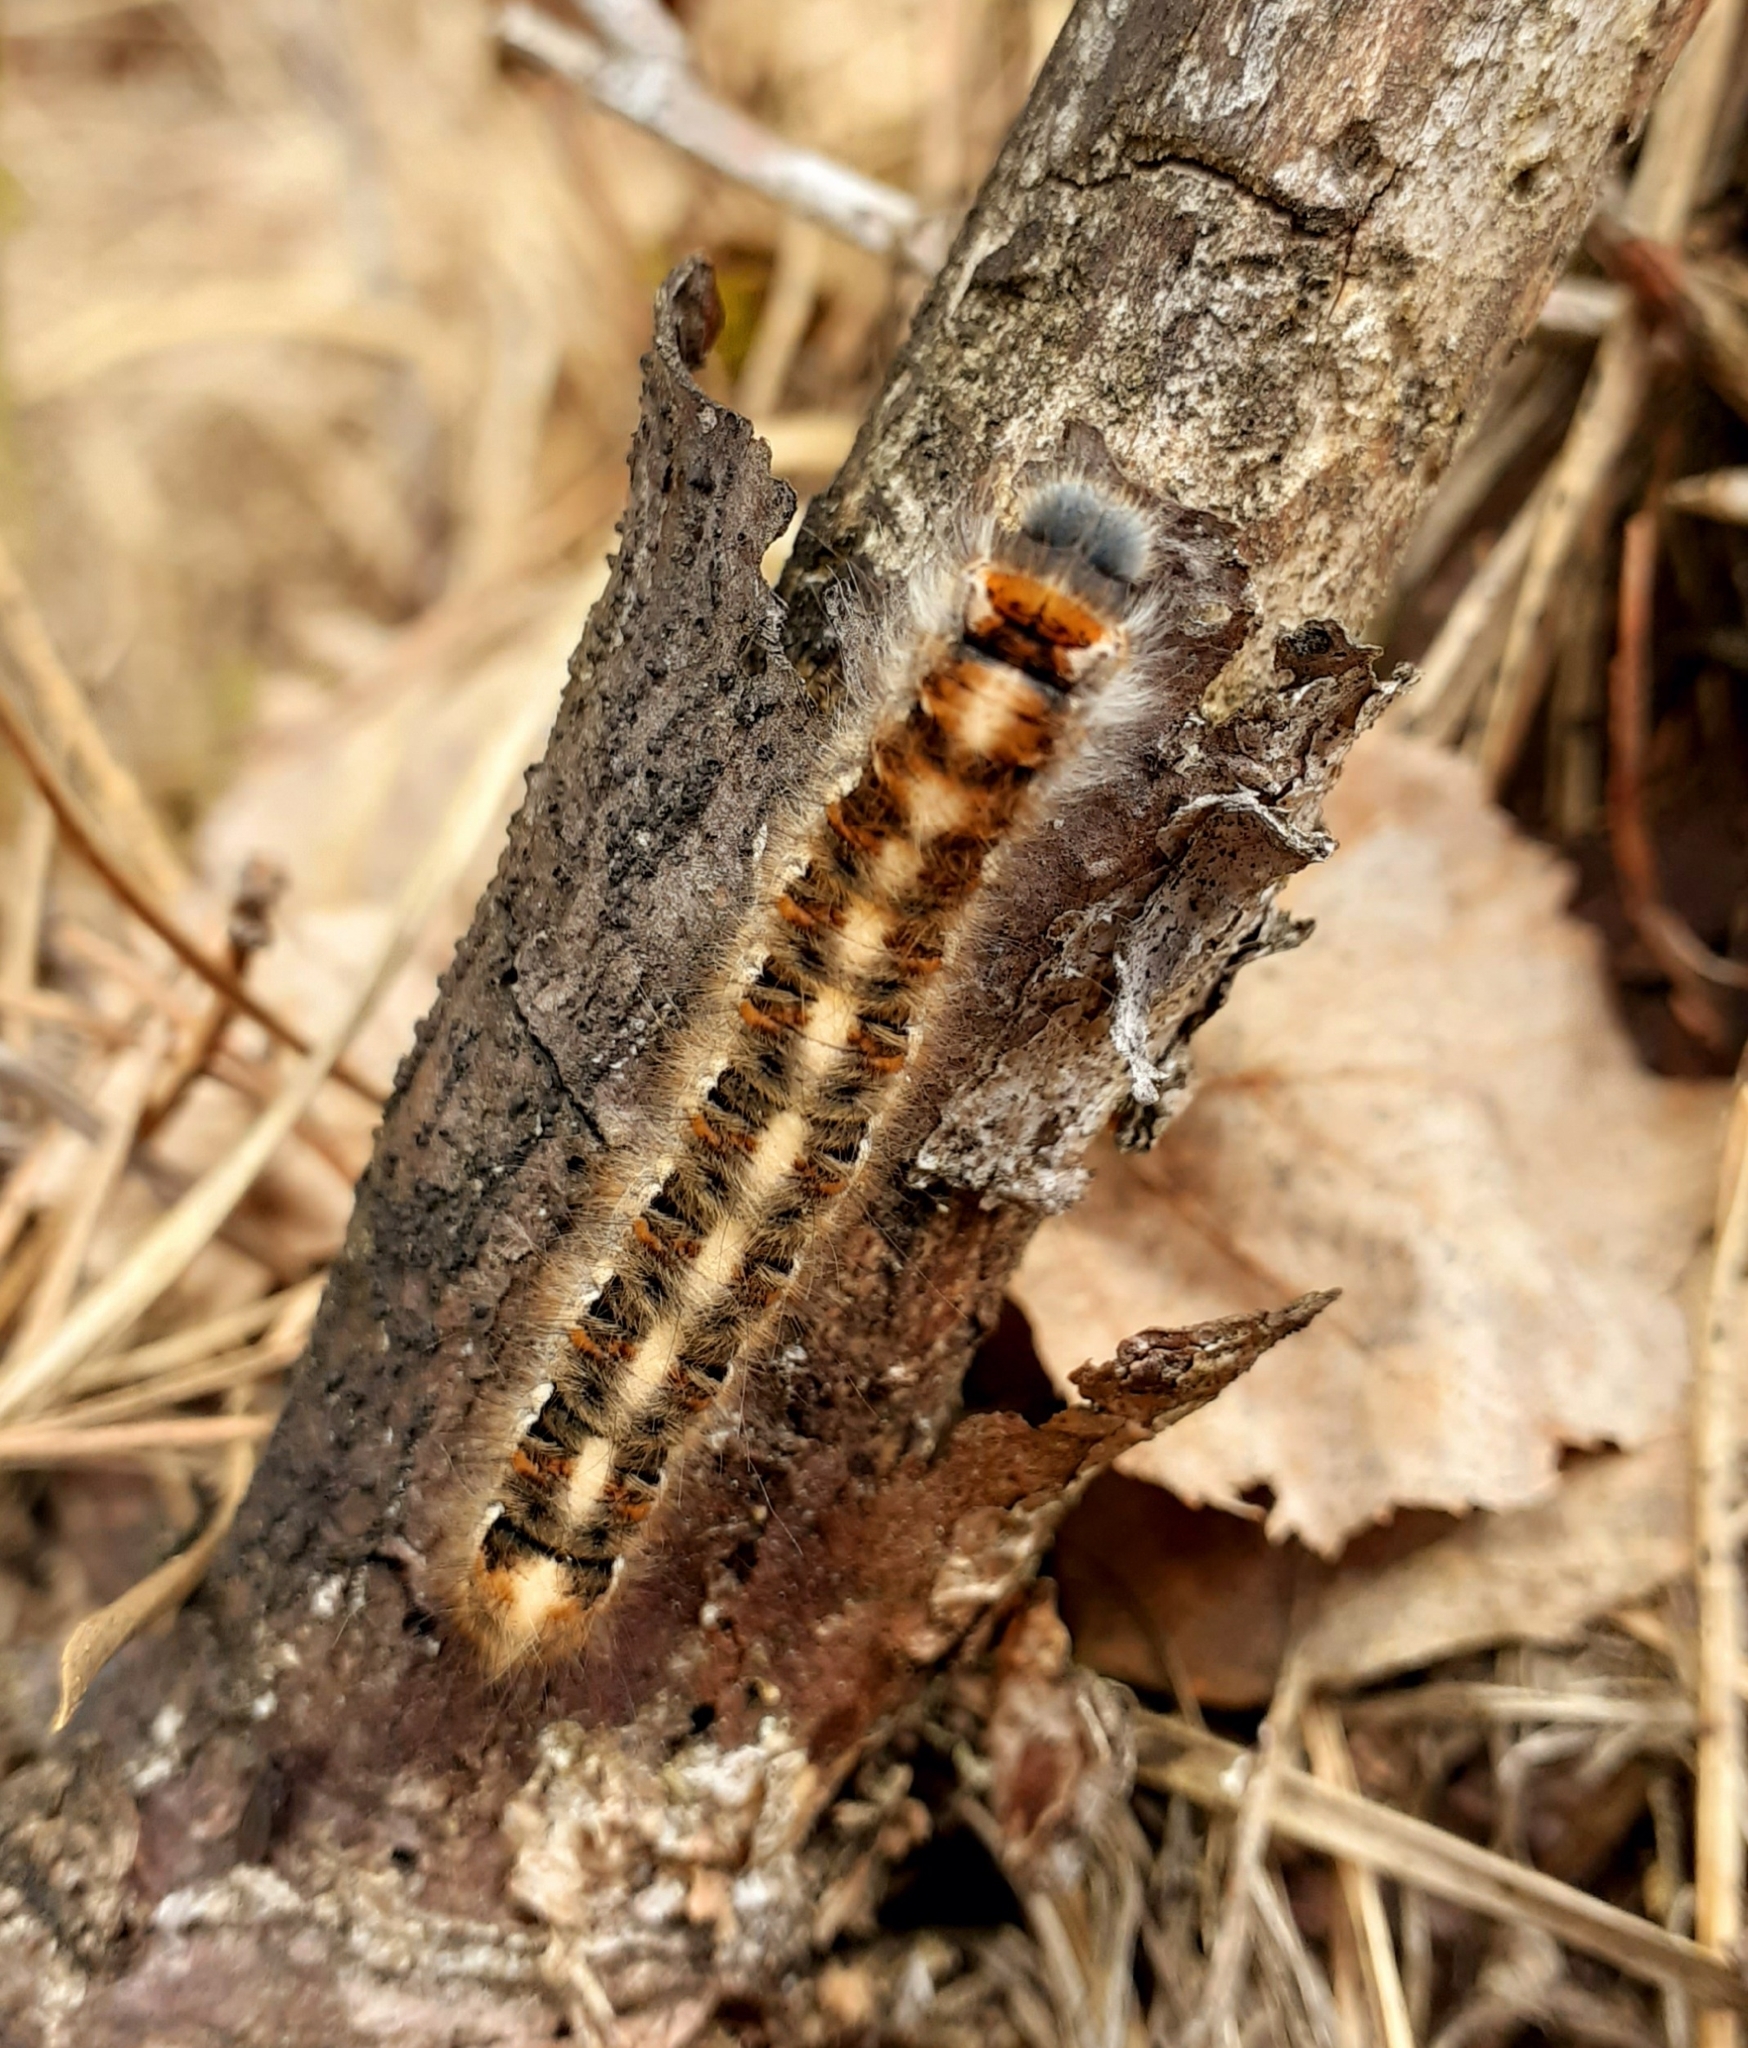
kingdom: Animalia
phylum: Arthropoda
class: Insecta
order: Lepidoptera
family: Lasiocampidae
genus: Lasiocampa
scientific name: Lasiocampa quercus
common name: Oak eggar
